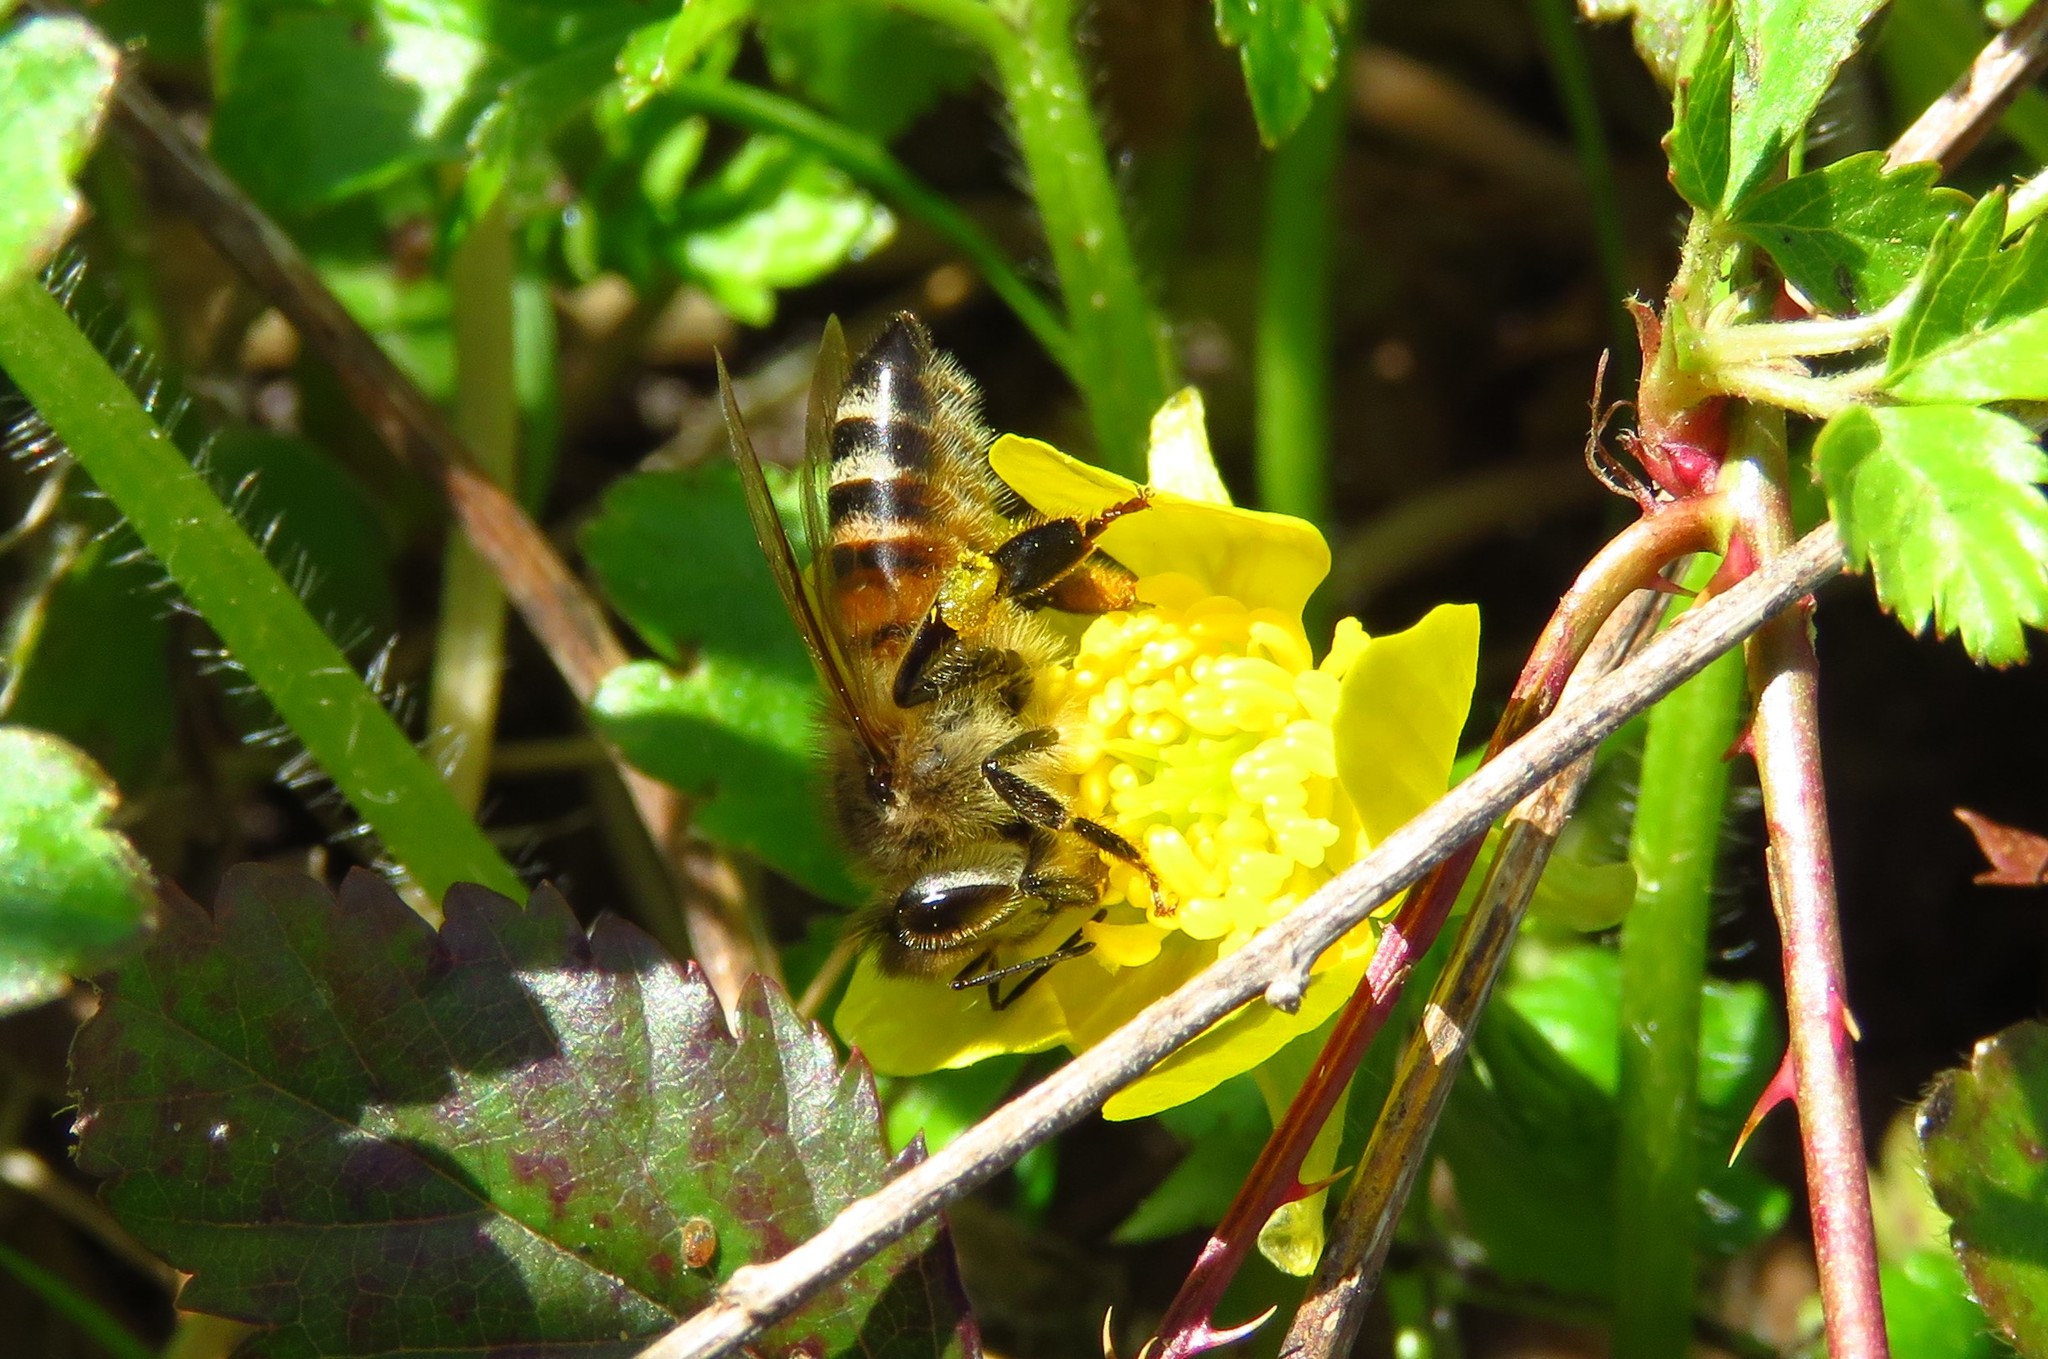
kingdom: Animalia
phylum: Arthropoda
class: Insecta
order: Hymenoptera
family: Apidae
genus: Apis
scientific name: Apis mellifera
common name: Honey bee
